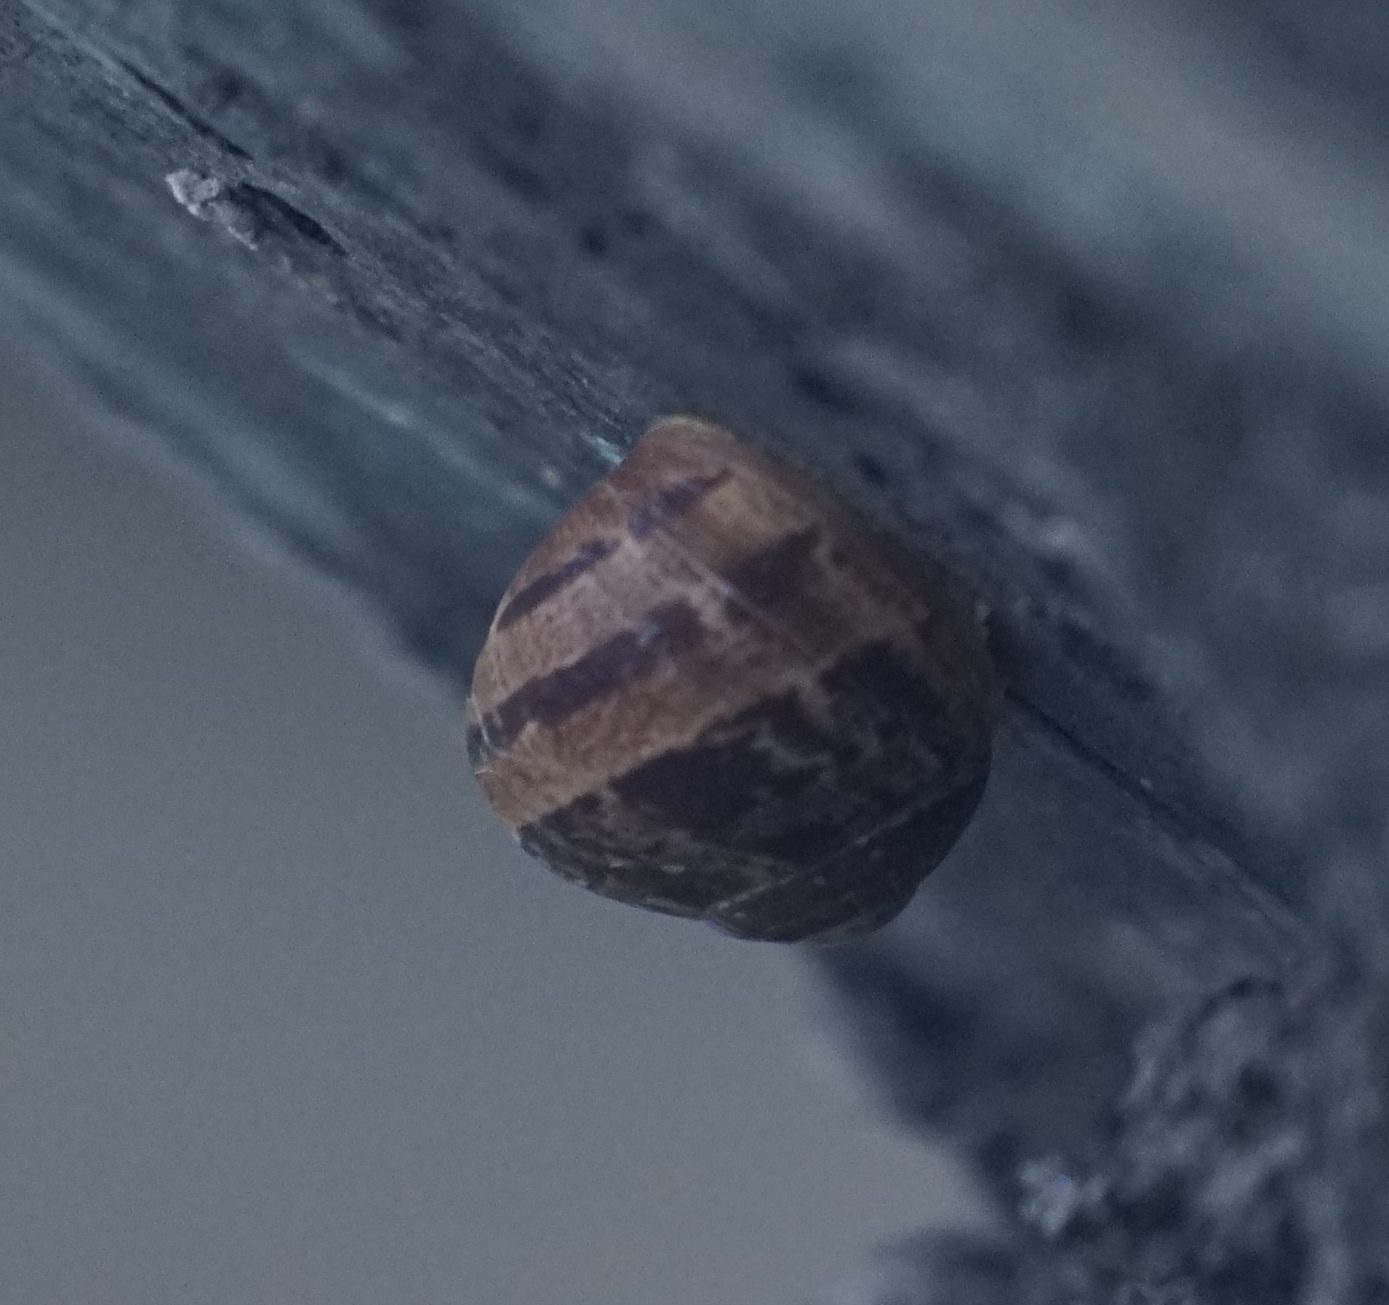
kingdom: Animalia
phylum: Mollusca
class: Gastropoda
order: Stylommatophora
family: Helicidae
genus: Cornu
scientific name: Cornu aspersum
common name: Brown garden snail
